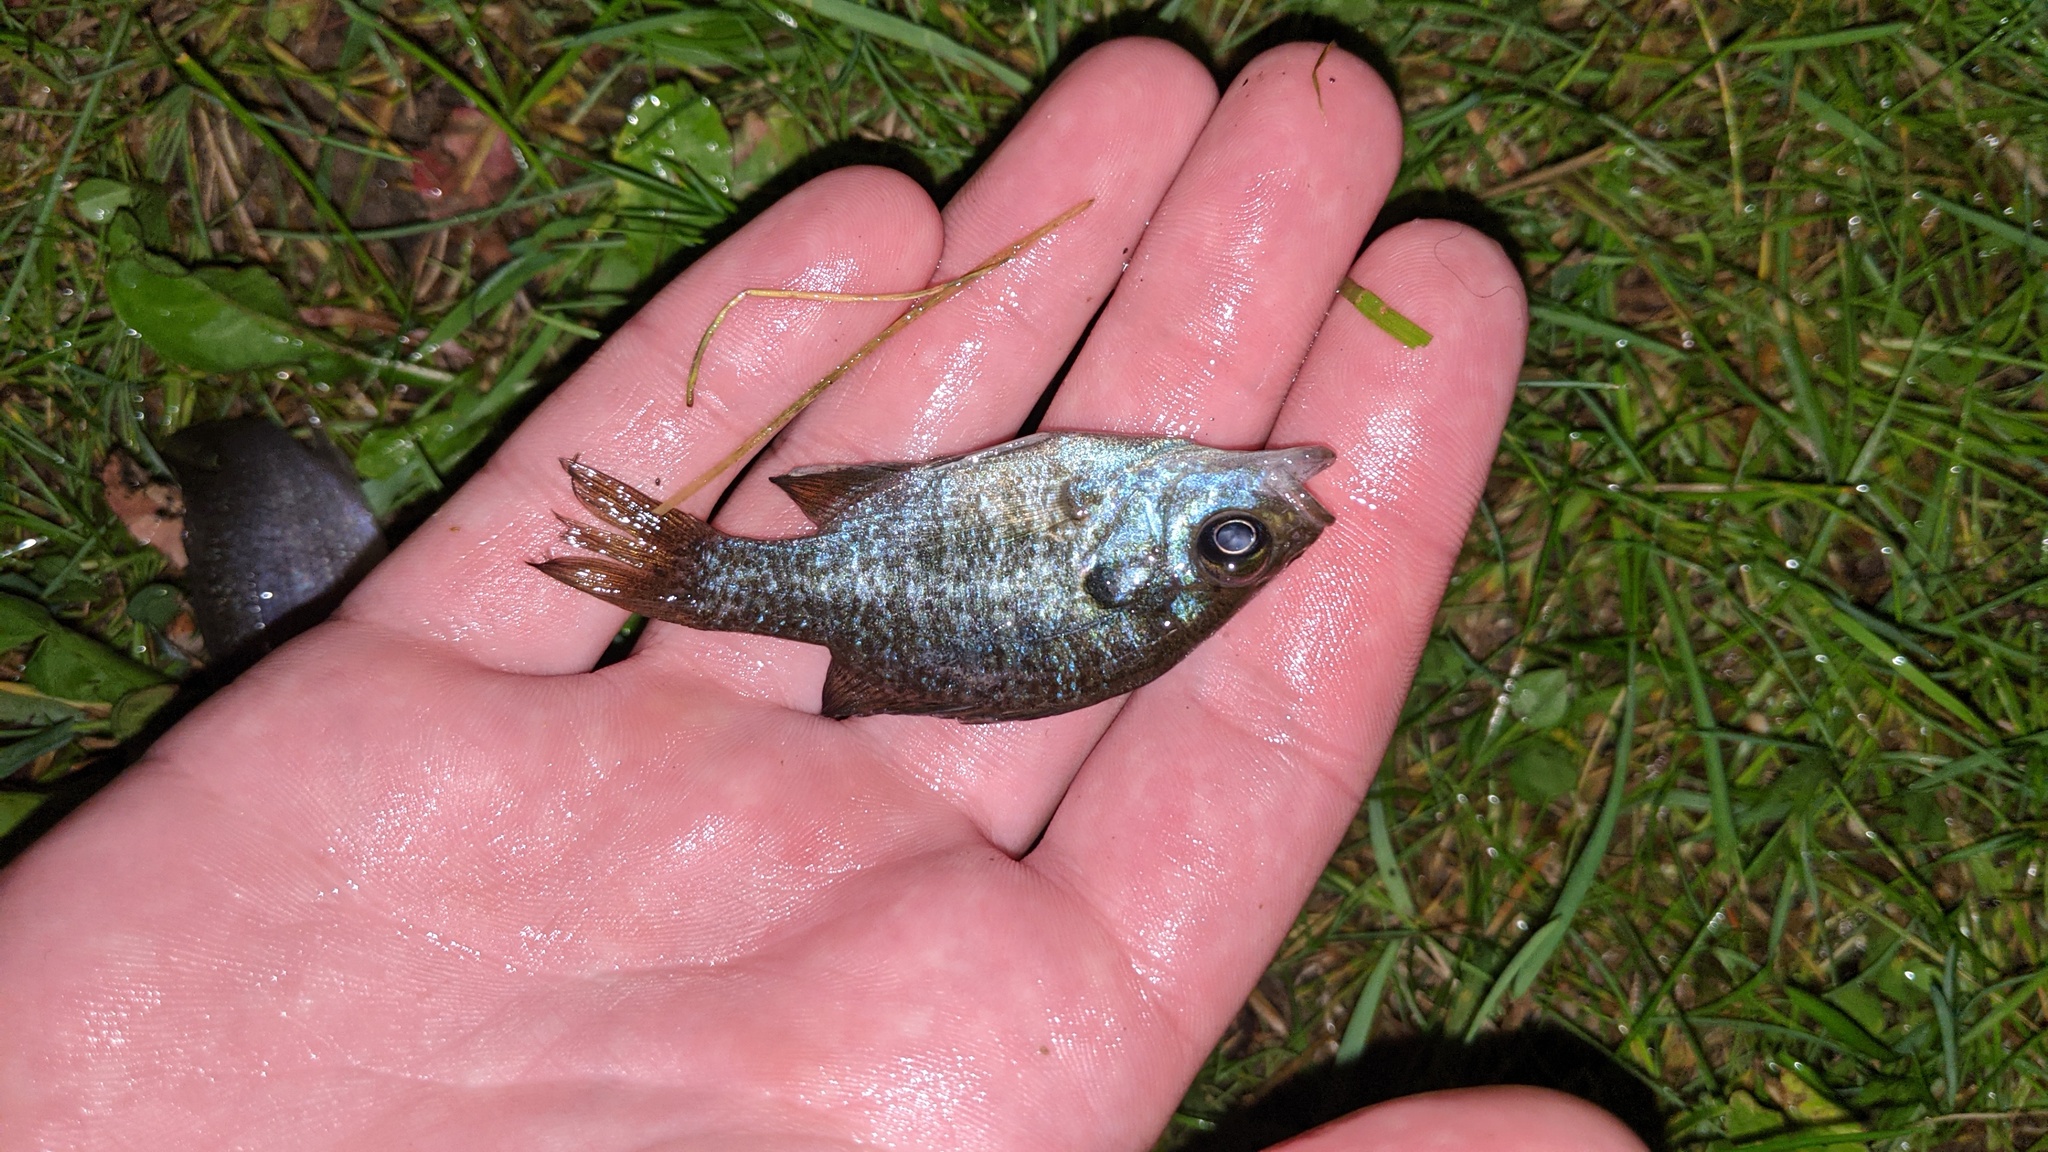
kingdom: Animalia
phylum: Chordata
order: Perciformes
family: Centrarchidae
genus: Lepomis
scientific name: Lepomis macrochirus
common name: Bluegill
